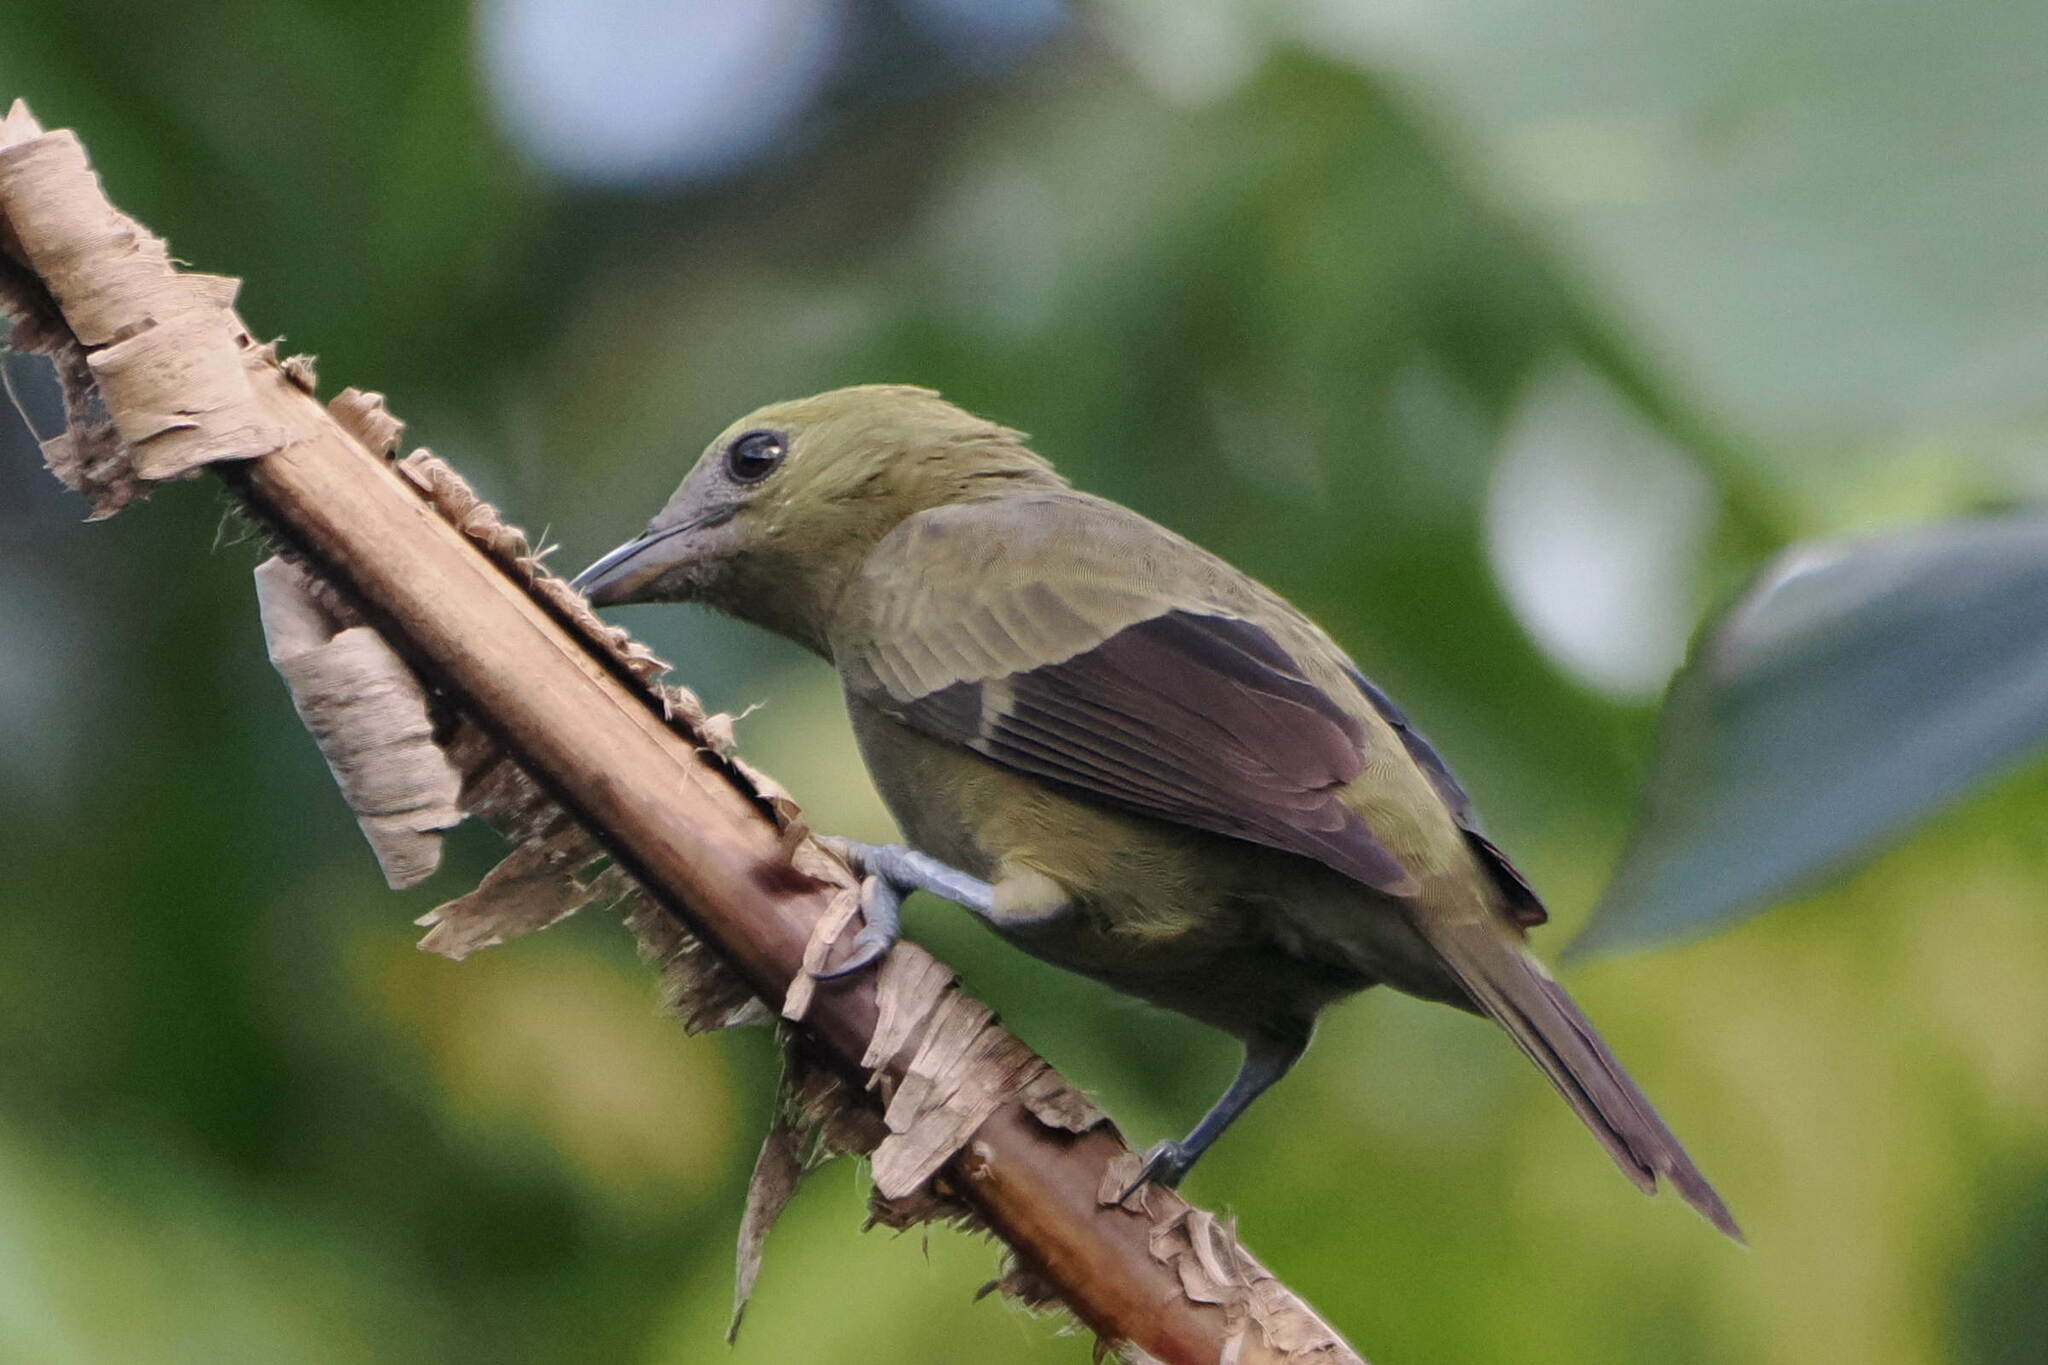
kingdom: Animalia
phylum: Chordata
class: Aves
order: Passeriformes
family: Thraupidae
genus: Thraupis
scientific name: Thraupis palmarum
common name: Palm tanager
